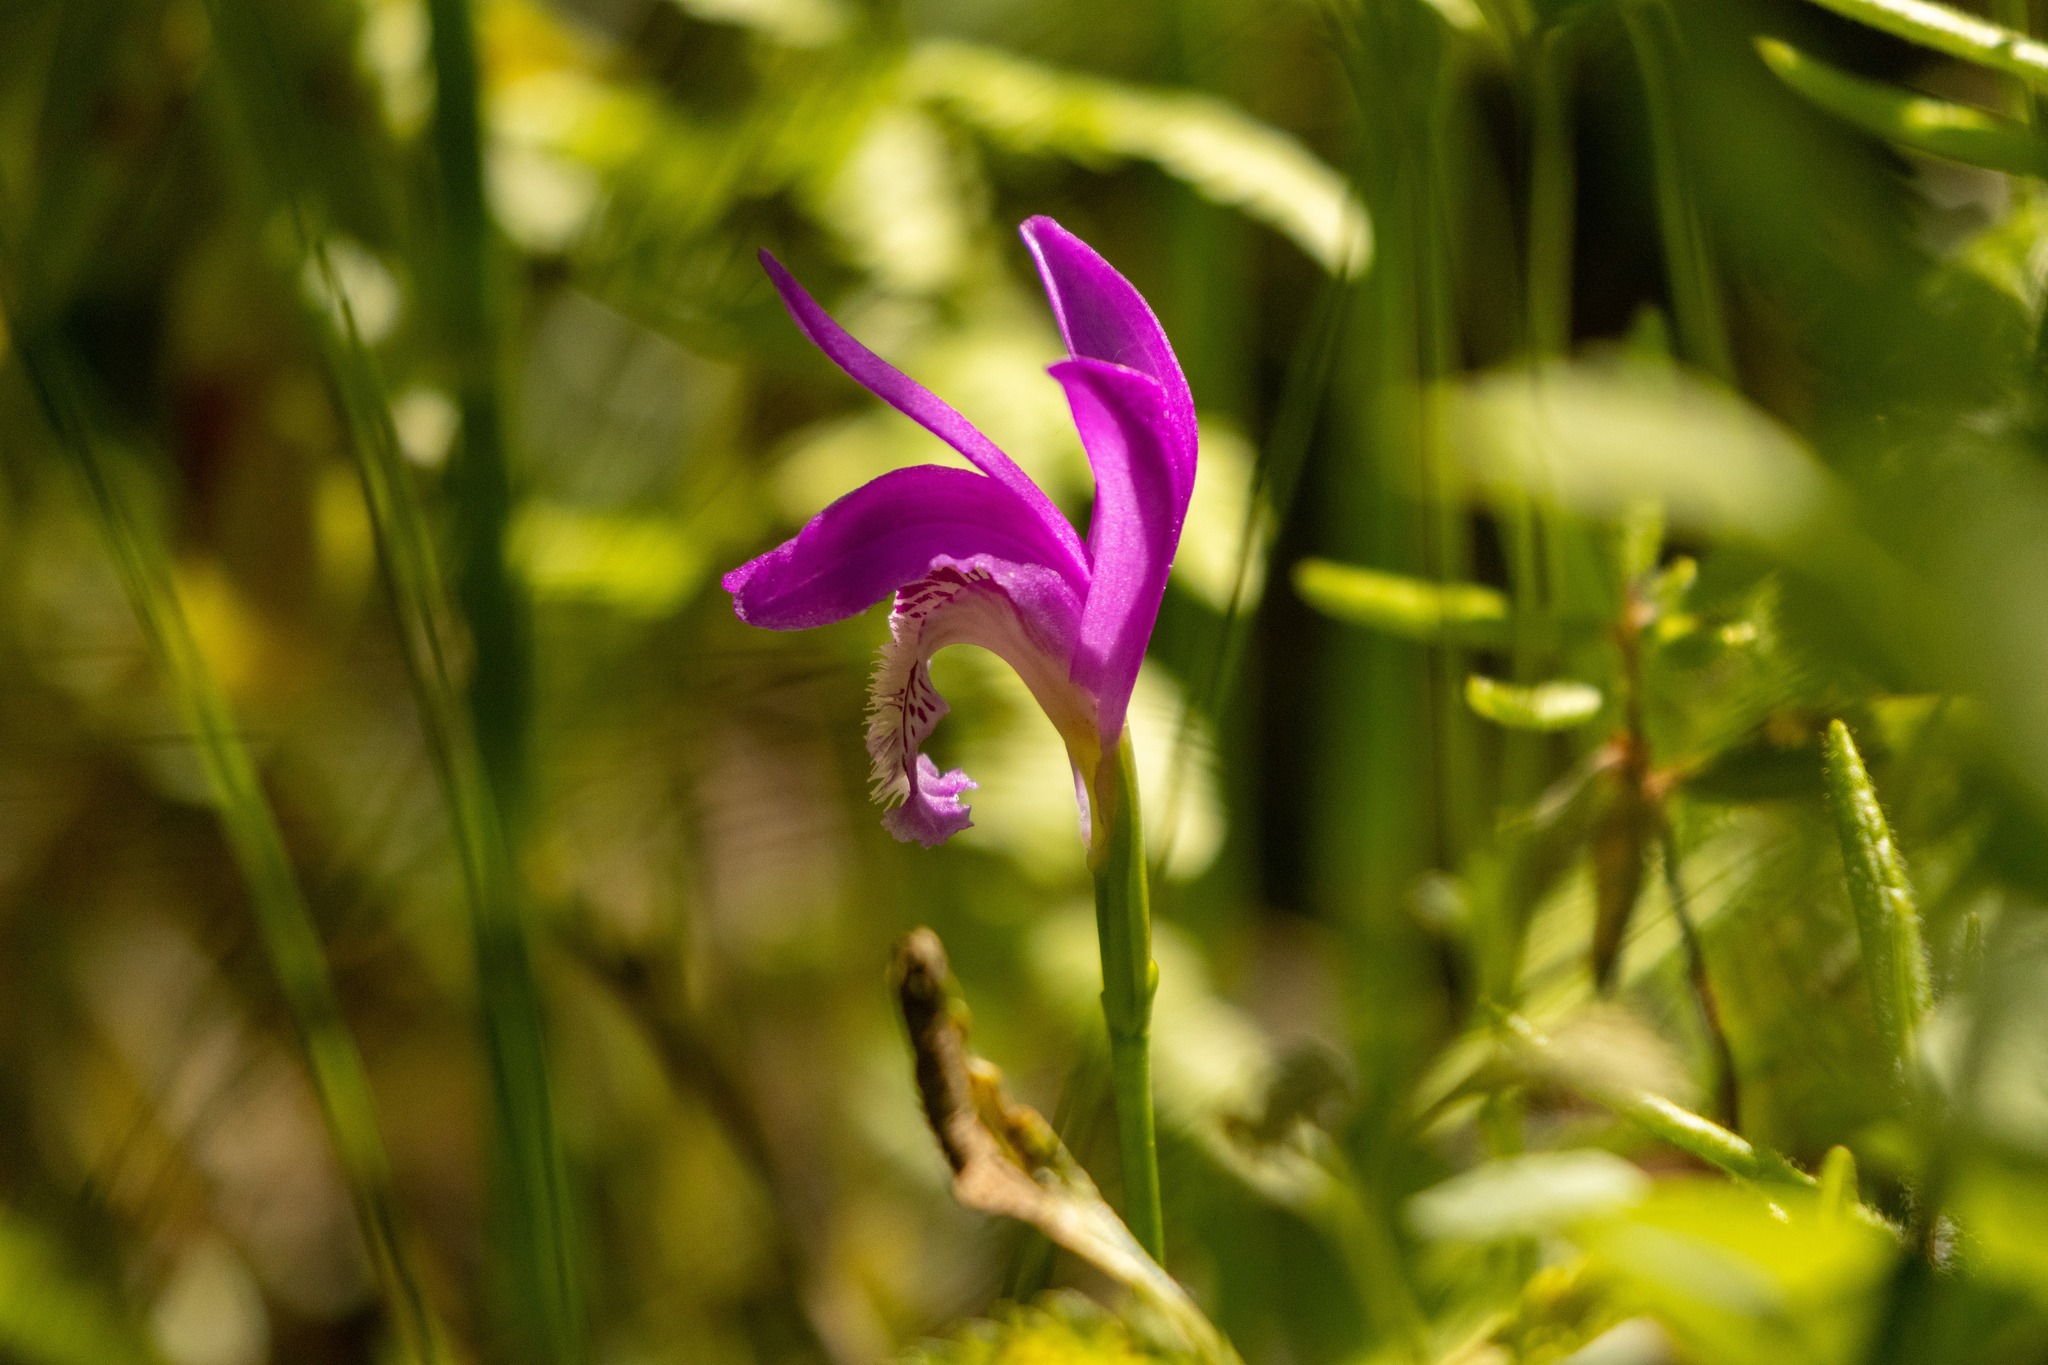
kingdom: Plantae
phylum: Tracheophyta
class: Liliopsida
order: Asparagales
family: Orchidaceae
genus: Arethusa
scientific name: Arethusa bulbosa
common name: Arethusa
